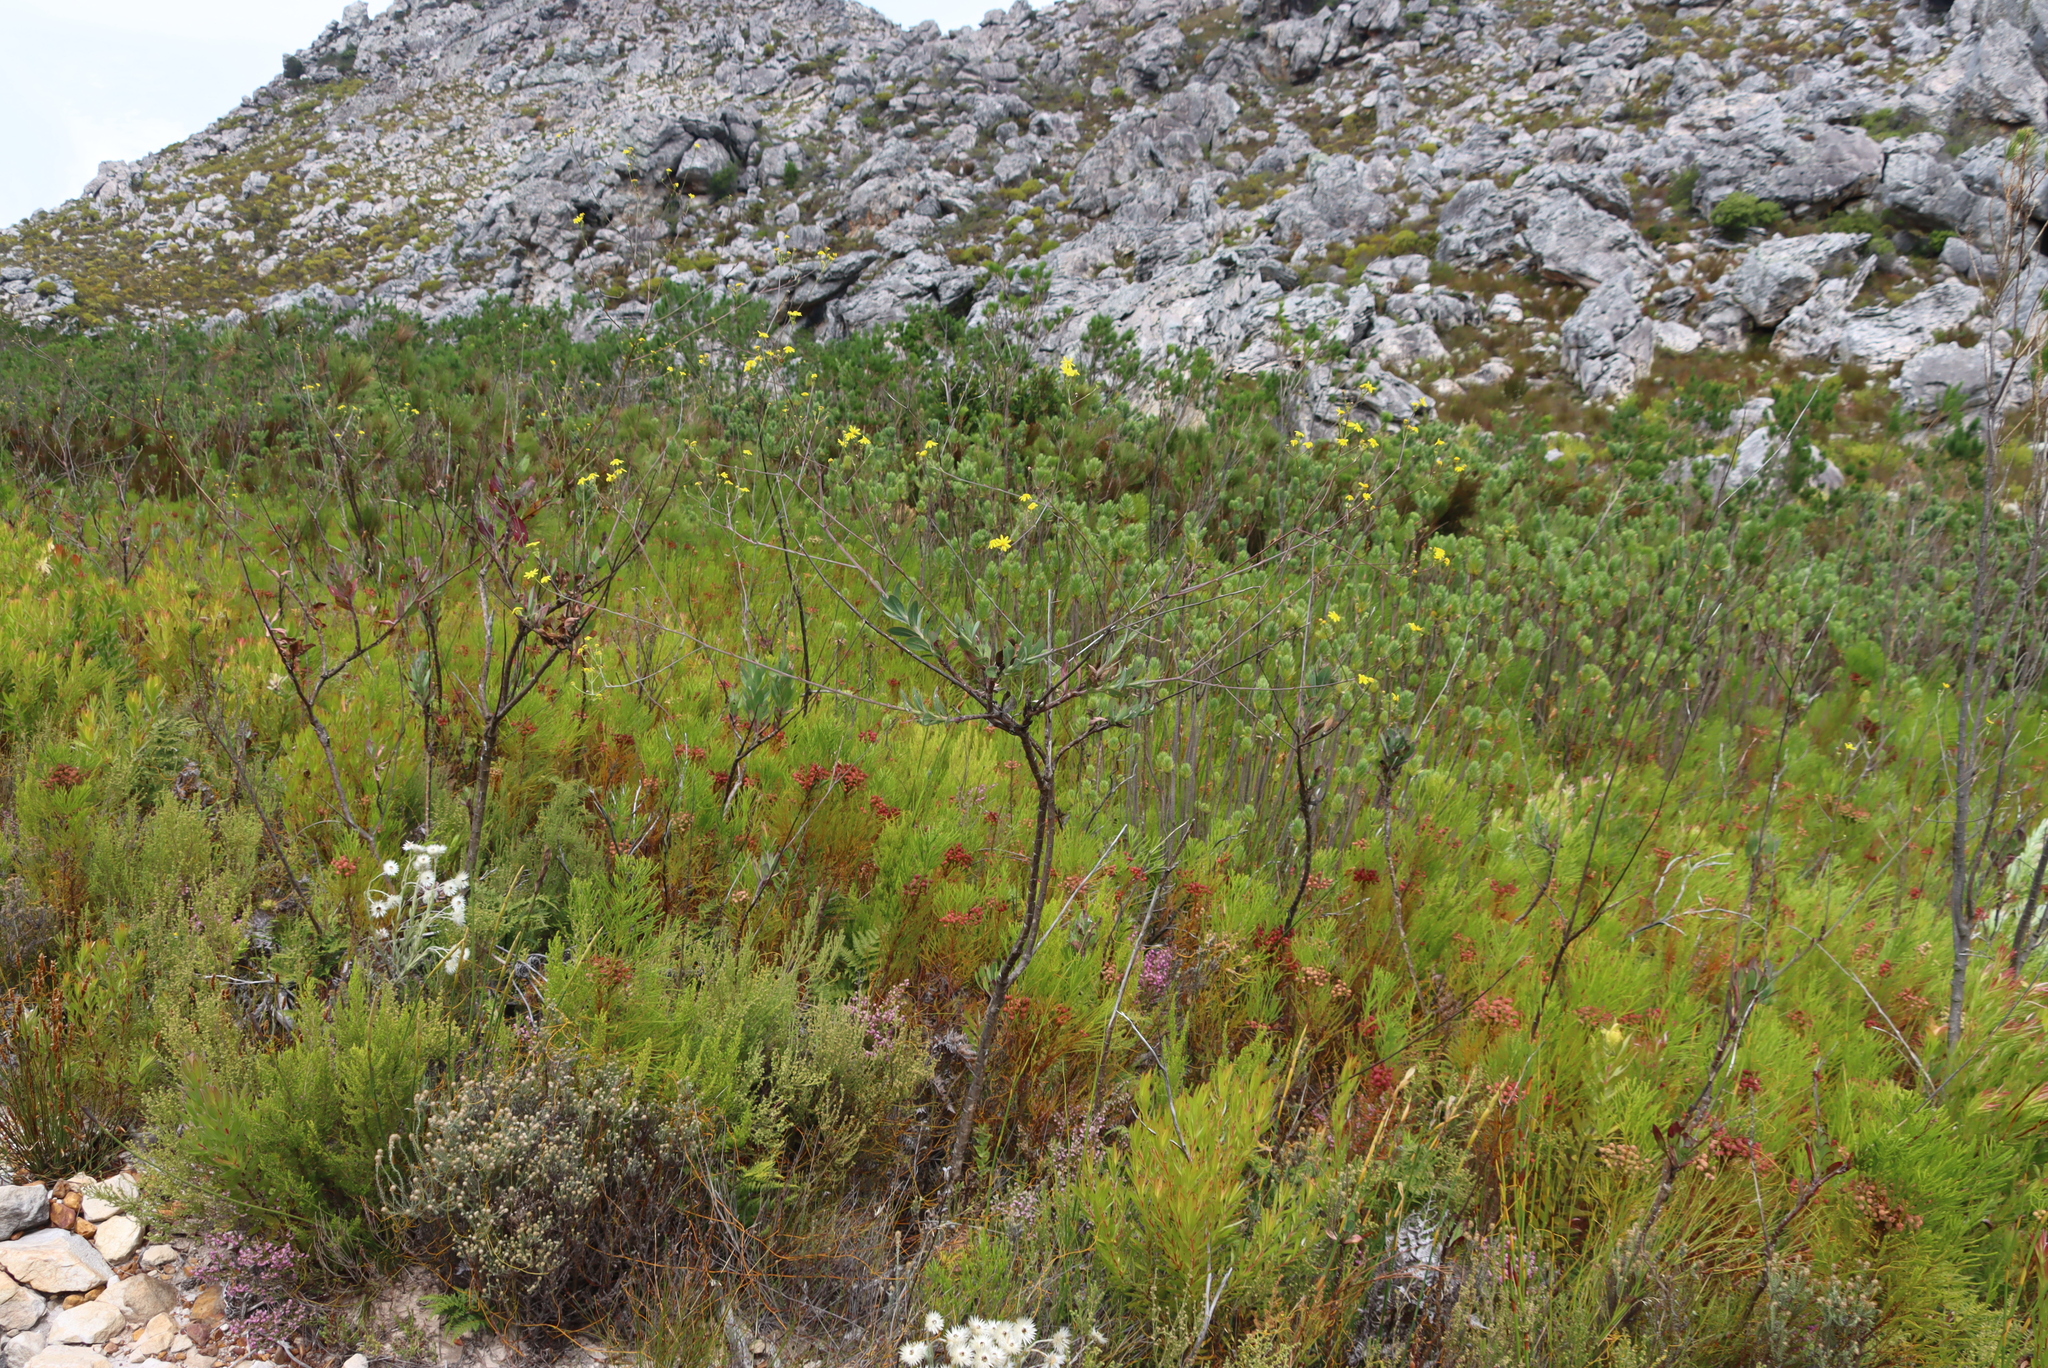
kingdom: Plantae
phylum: Tracheophyta
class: Magnoliopsida
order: Asterales
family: Asteraceae
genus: Othonna
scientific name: Othonna quinquedentata
